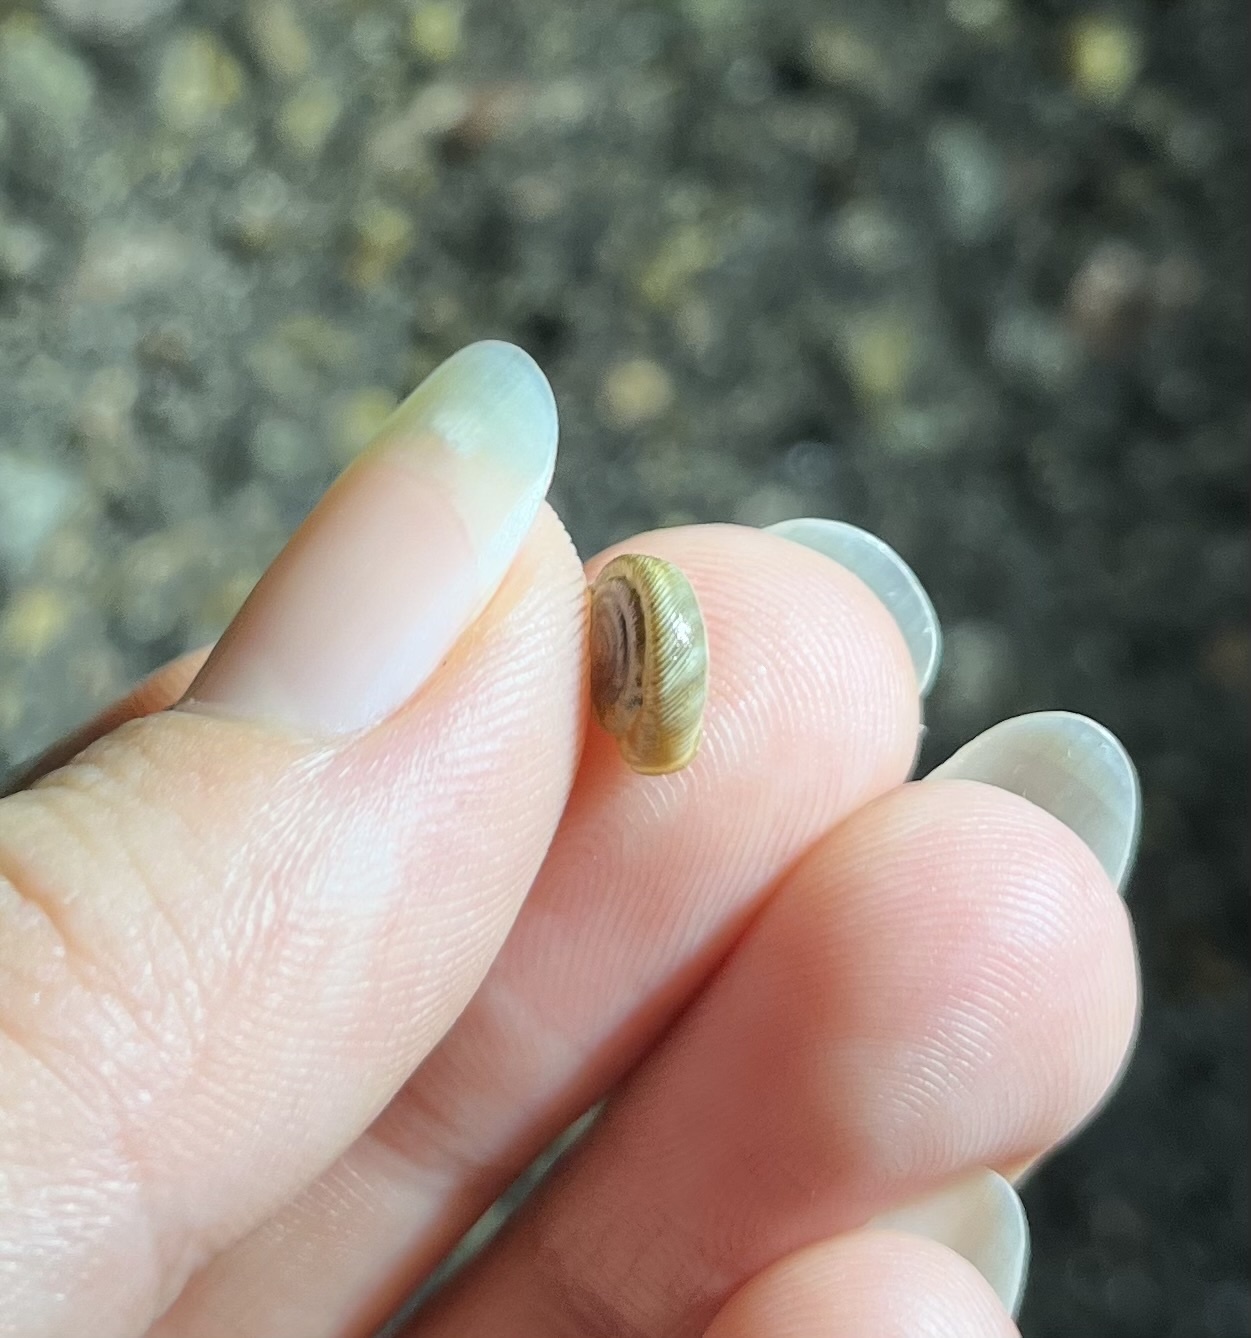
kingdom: Animalia
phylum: Mollusca
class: Gastropoda
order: Stylommatophora
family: Polygyridae
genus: Polygyra
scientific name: Polygyra cereolus
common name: Southern flatcone snail
